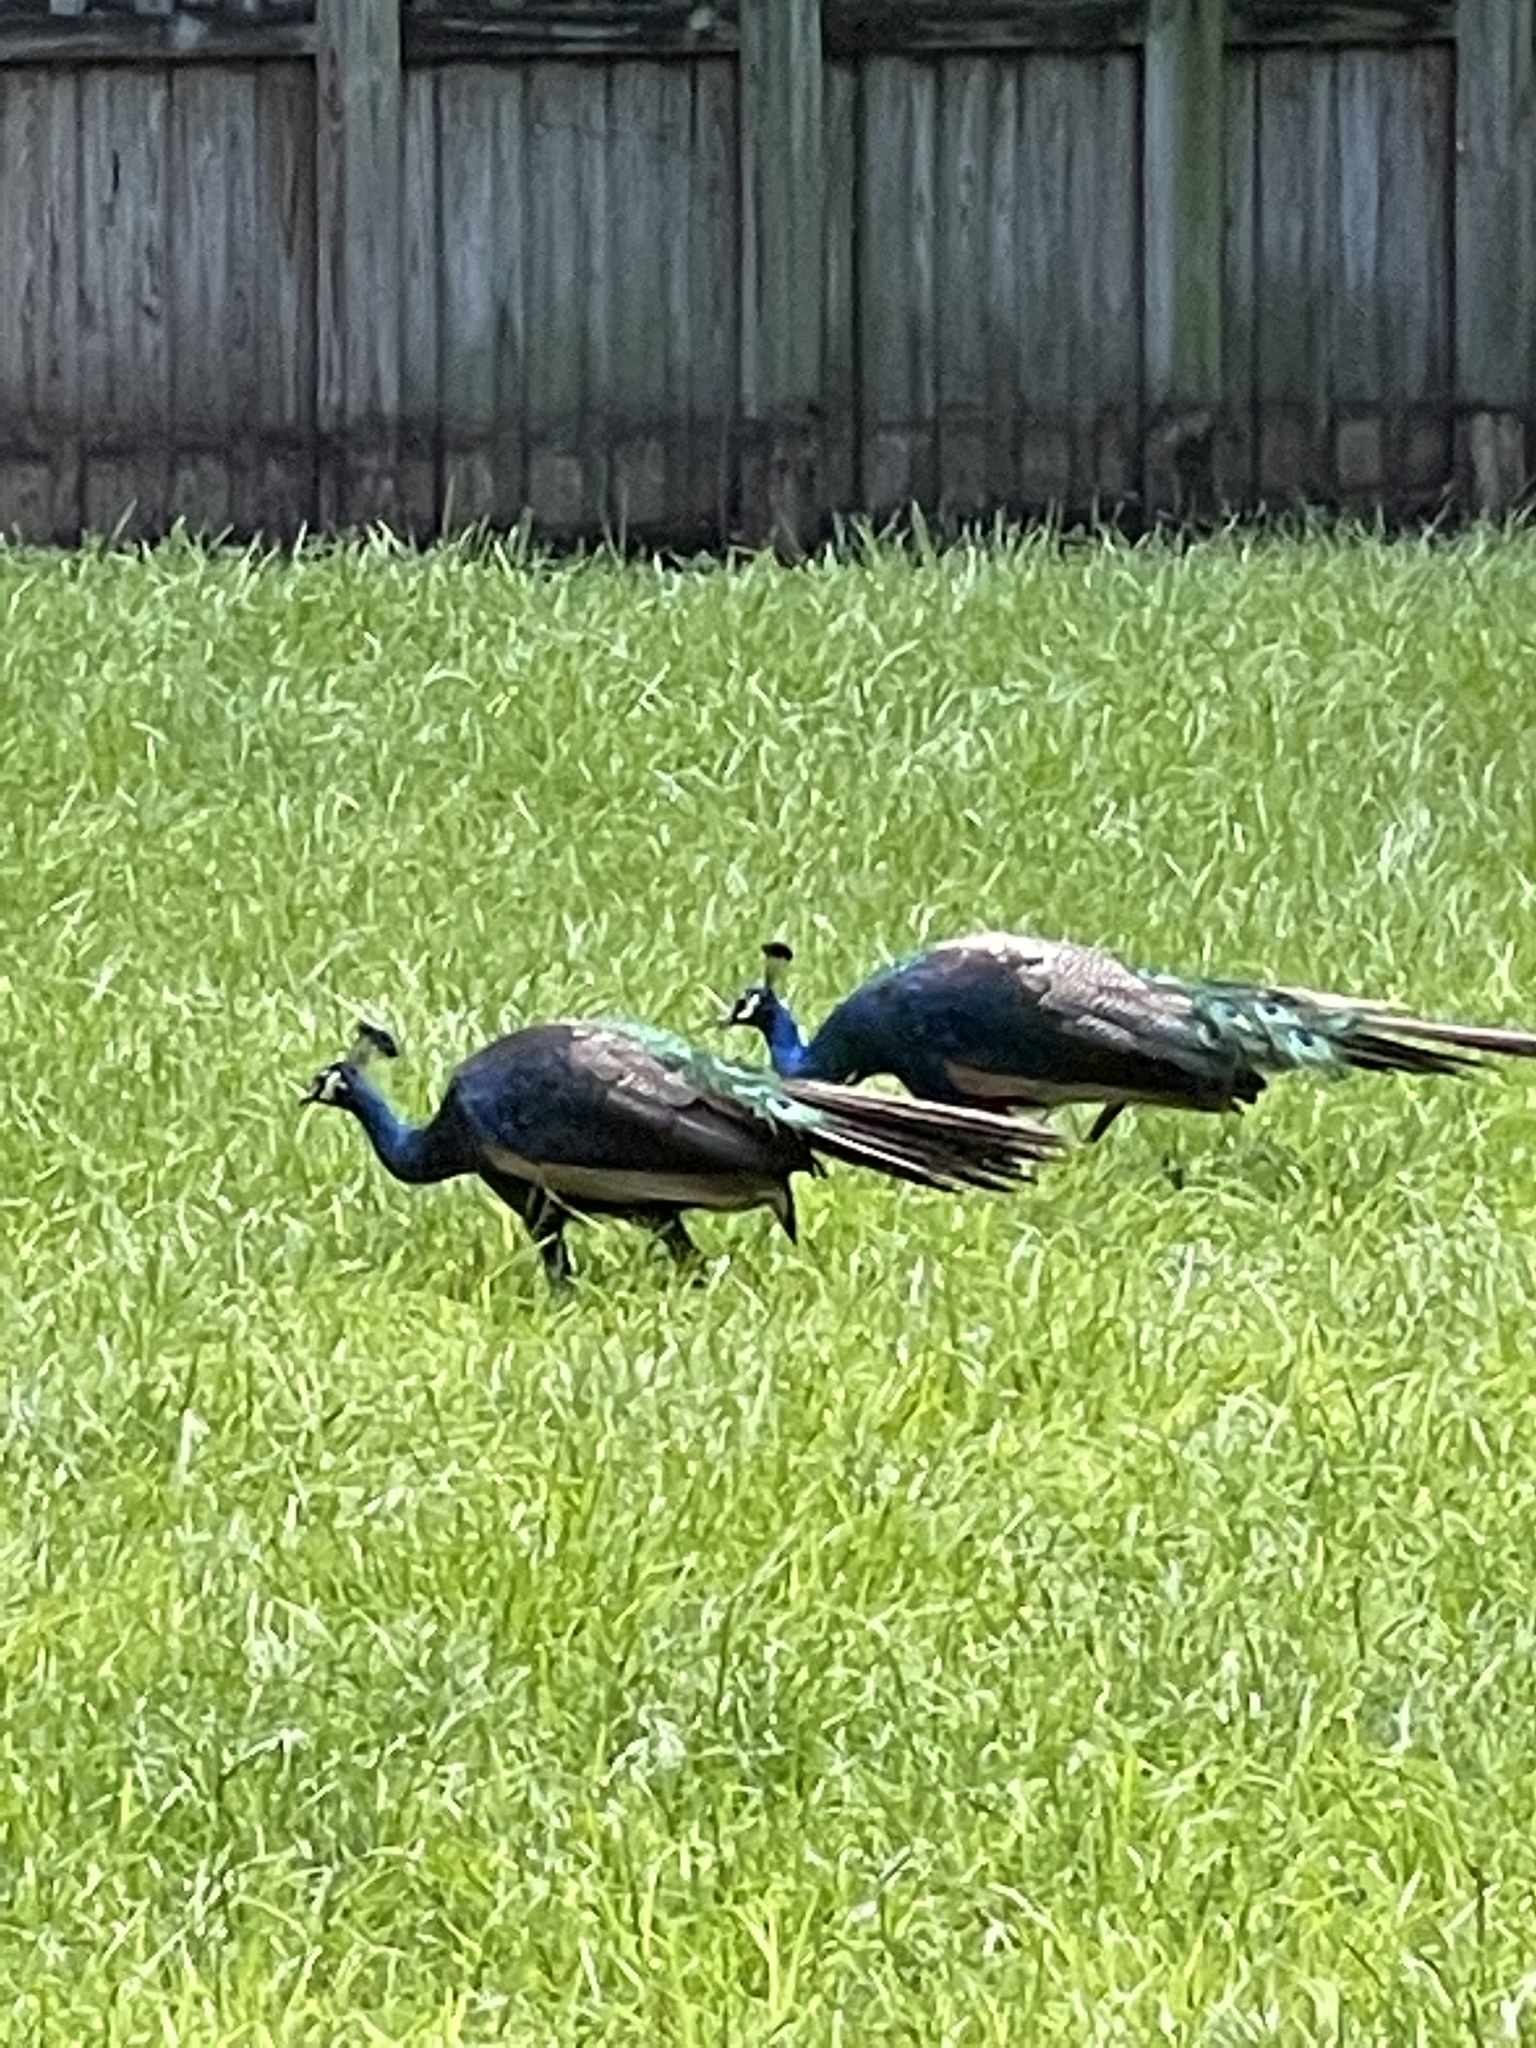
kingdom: Animalia
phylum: Chordata
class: Aves
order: Galliformes
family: Phasianidae
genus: Pavo
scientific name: Pavo cristatus
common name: Indian peafowl
